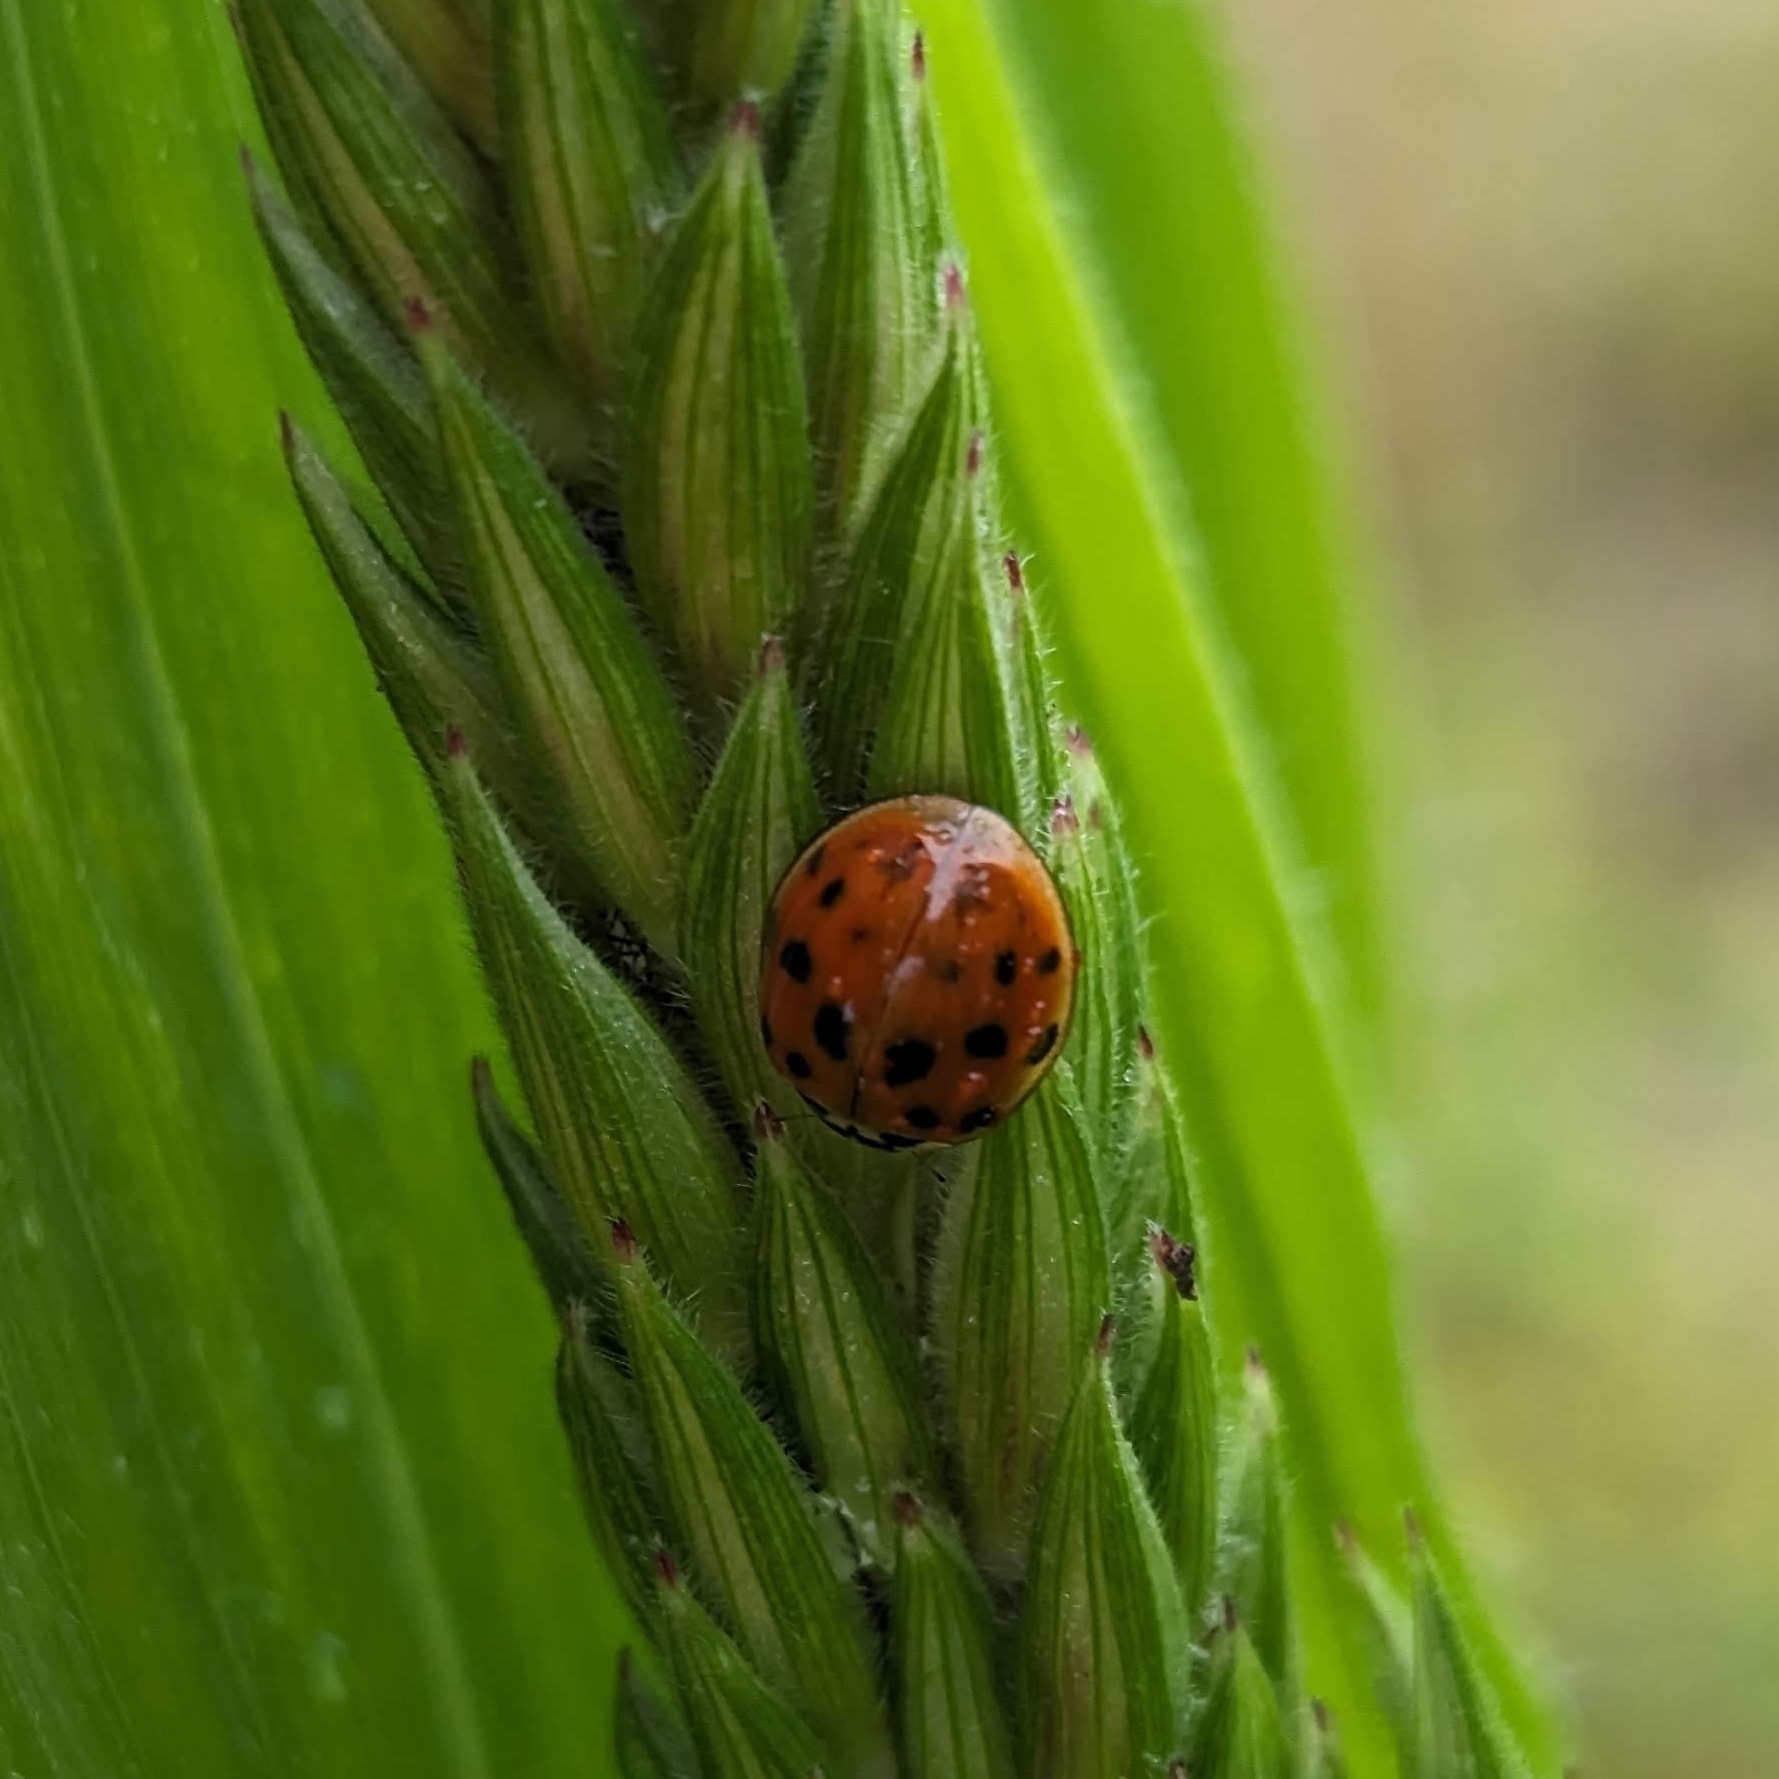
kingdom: Animalia
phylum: Arthropoda
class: Insecta
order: Coleoptera
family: Coccinellidae
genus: Harmonia
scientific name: Harmonia axyridis
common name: Harlequin ladybird
